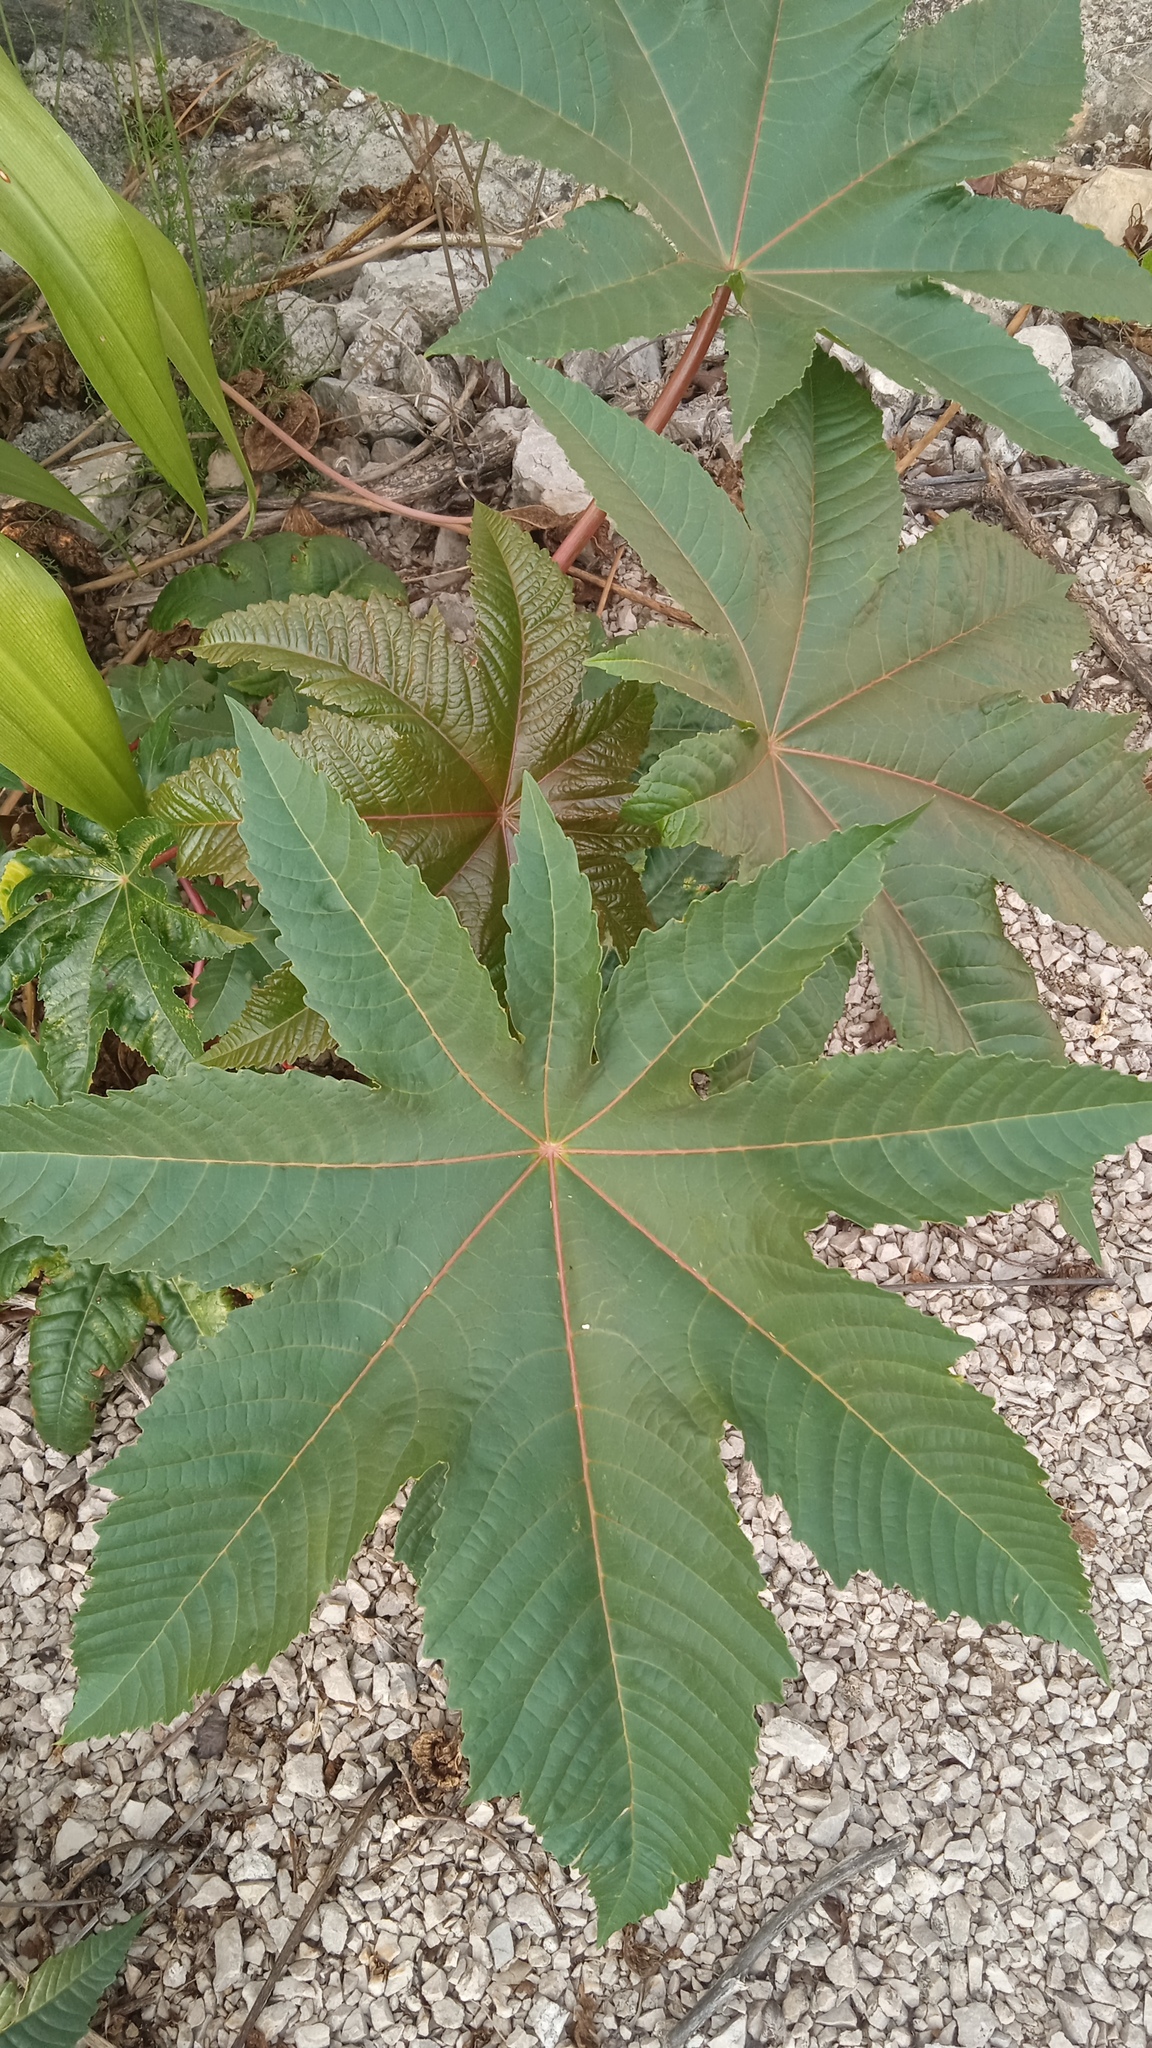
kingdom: Plantae
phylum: Tracheophyta
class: Magnoliopsida
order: Malpighiales
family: Euphorbiaceae
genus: Ricinus
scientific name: Ricinus communis
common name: Castor-oil-plant
